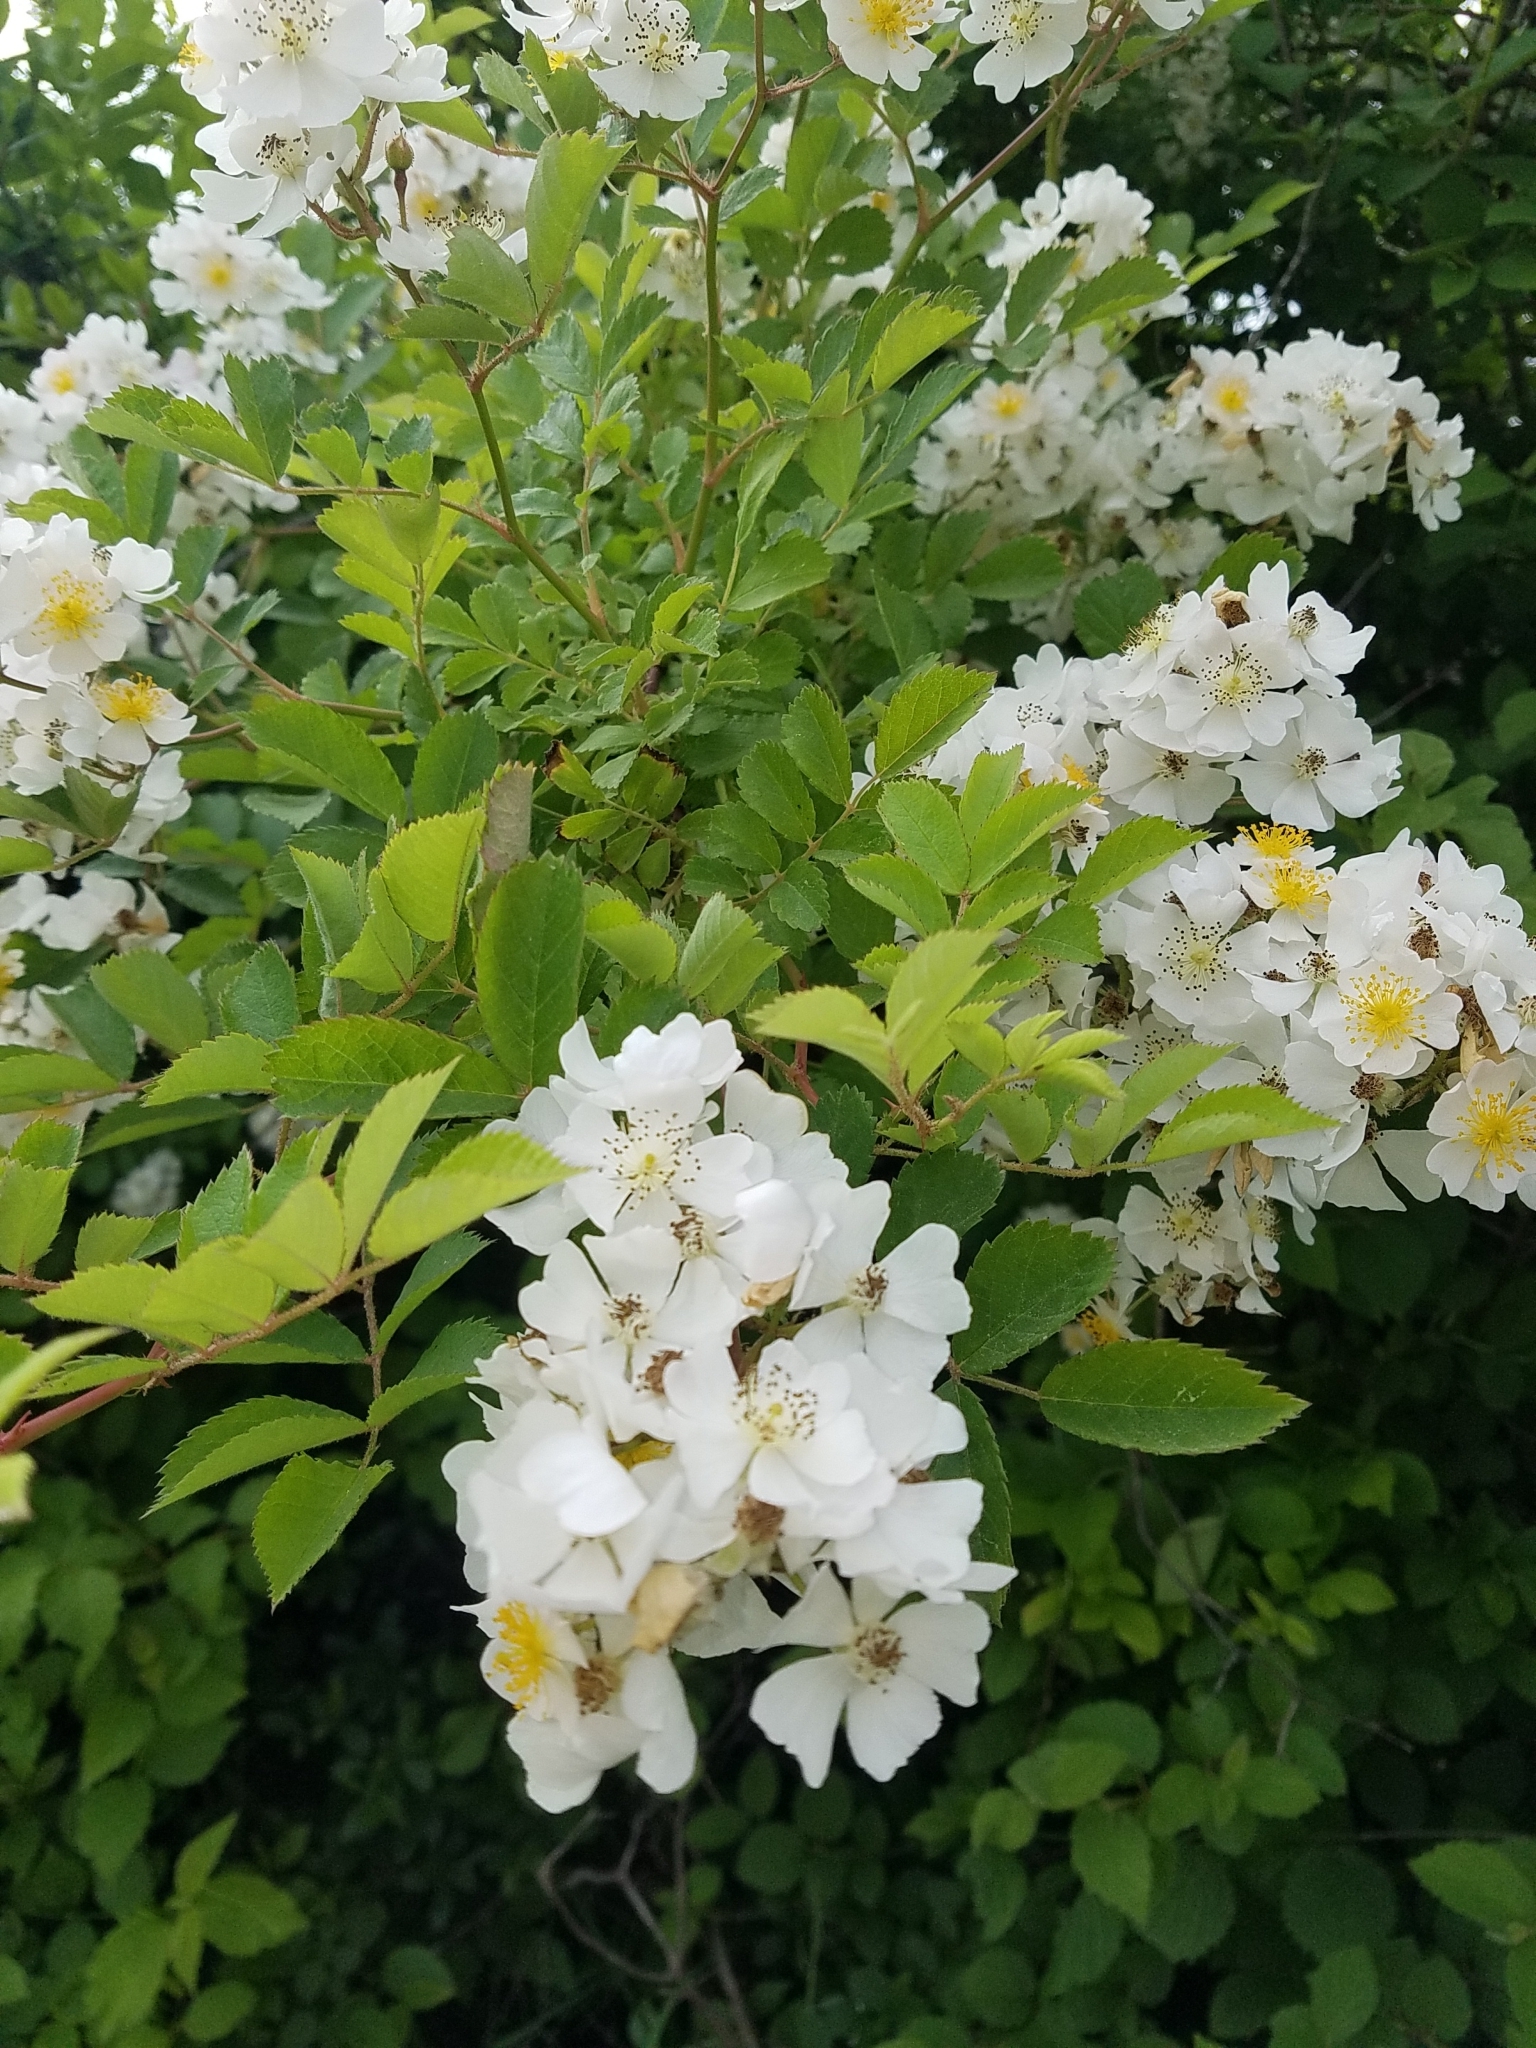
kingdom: Plantae
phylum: Tracheophyta
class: Magnoliopsida
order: Rosales
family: Rosaceae
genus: Rosa
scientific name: Rosa multiflora
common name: Multiflora rose
